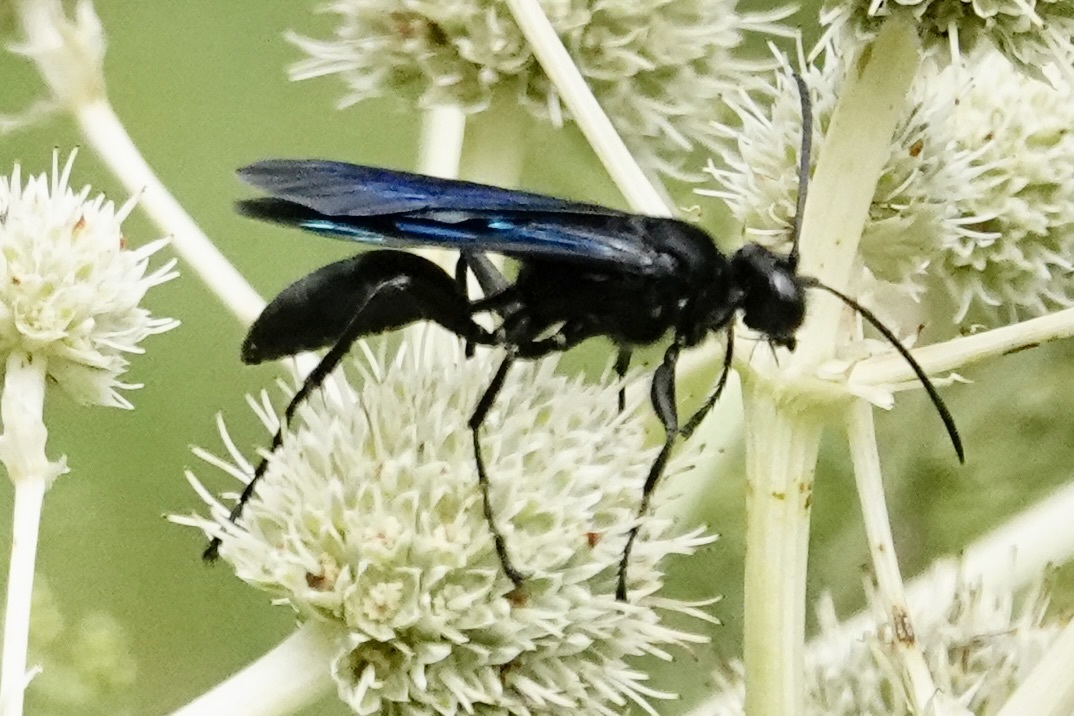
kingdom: Animalia
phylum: Arthropoda
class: Insecta
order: Hymenoptera
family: Sphecidae
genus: Sphex
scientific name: Sphex pensylvanicus
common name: Great black digger wasp
